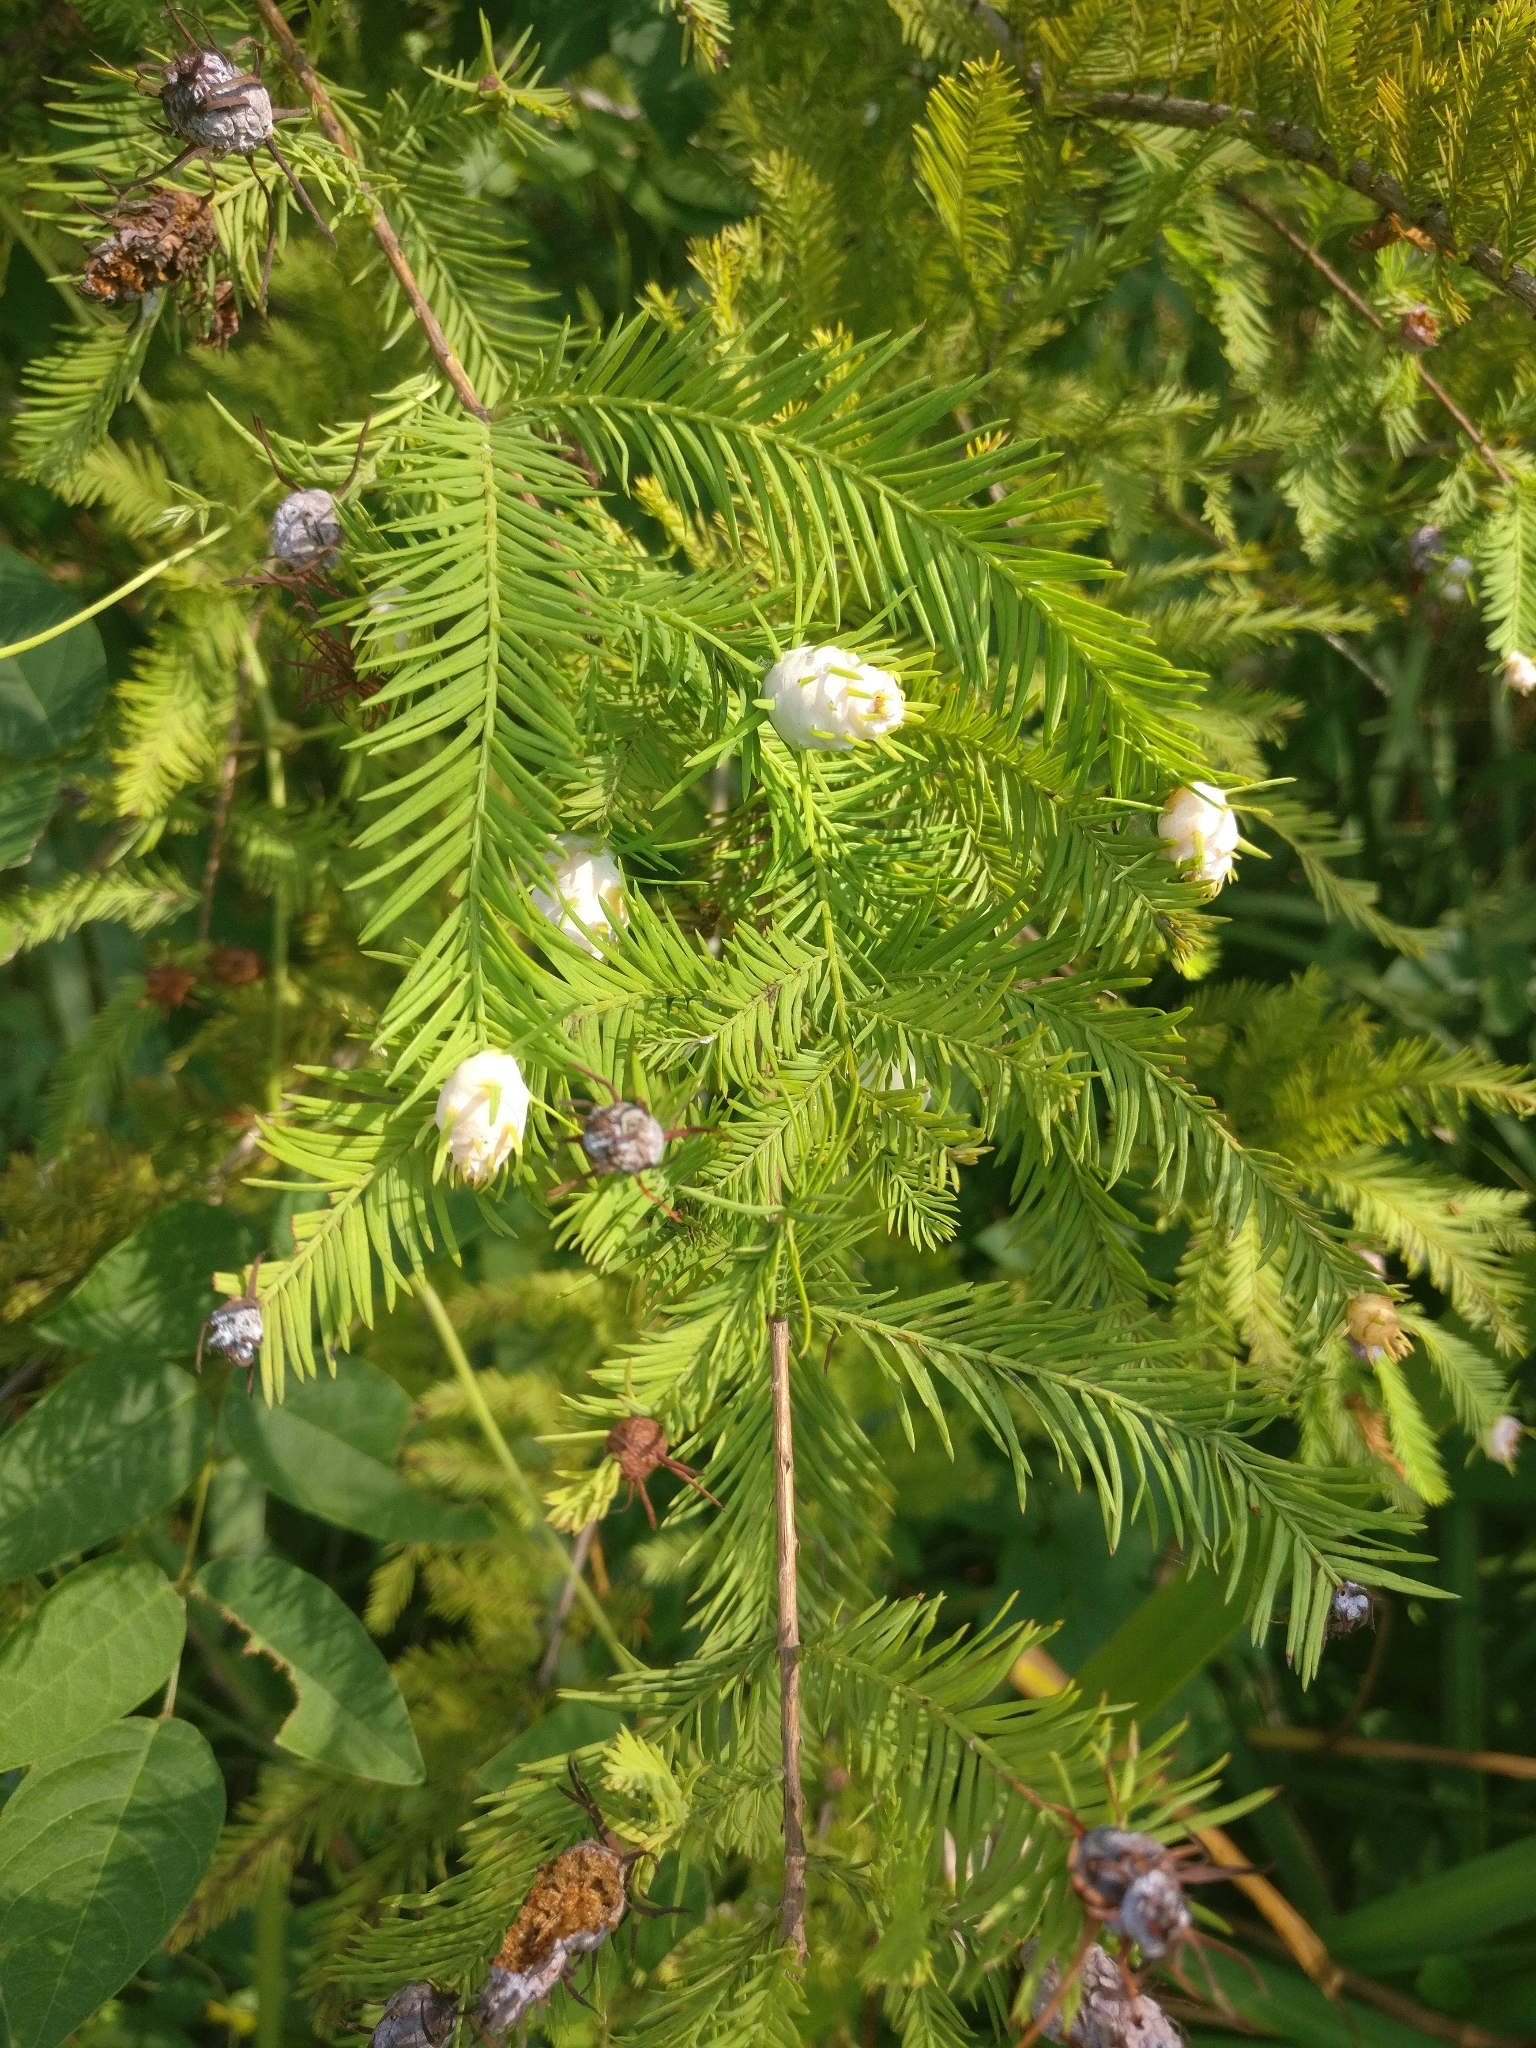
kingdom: Animalia
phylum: Arthropoda
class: Insecta
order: Diptera
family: Cecidomyiidae
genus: Taxodiomyia
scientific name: Taxodiomyia cupressiananassa
